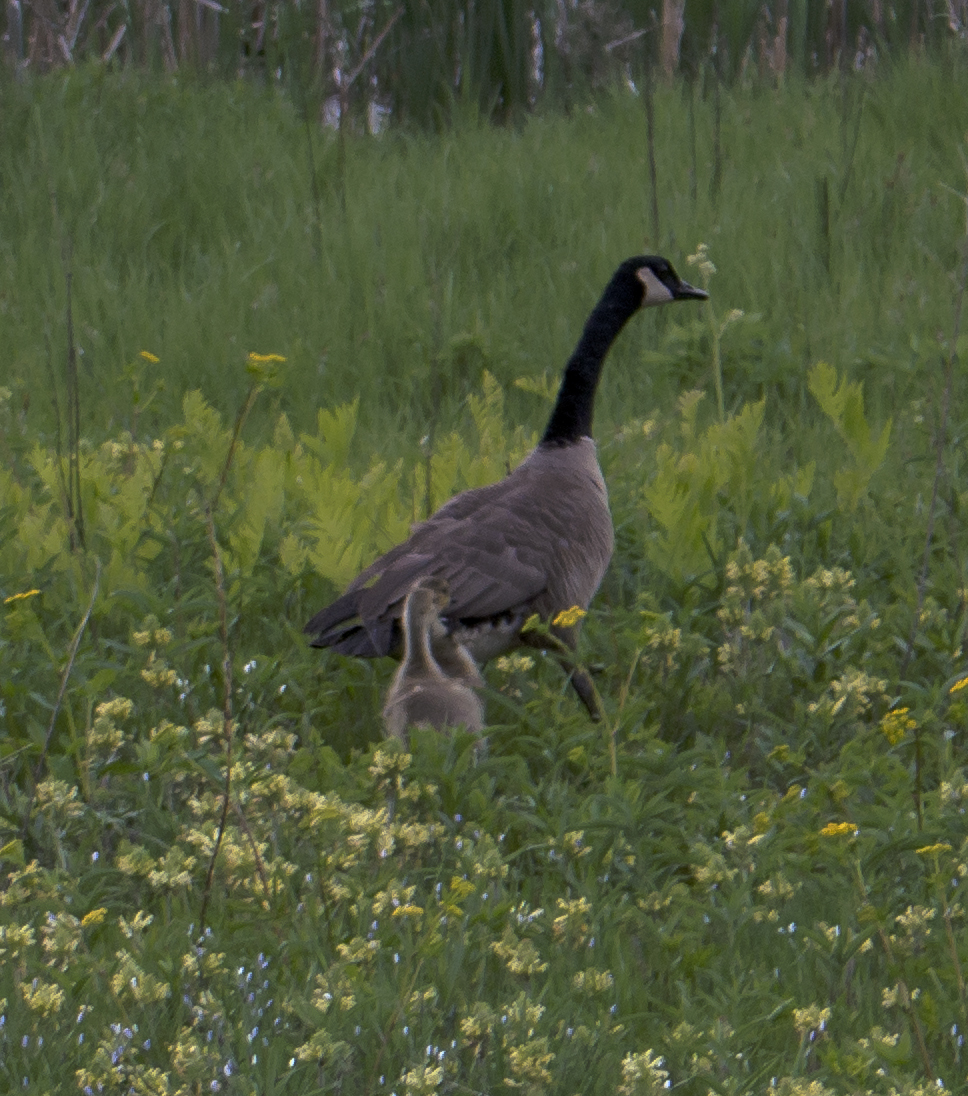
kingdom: Animalia
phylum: Chordata
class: Aves
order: Anseriformes
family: Anatidae
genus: Branta
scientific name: Branta canadensis
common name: Canada goose
